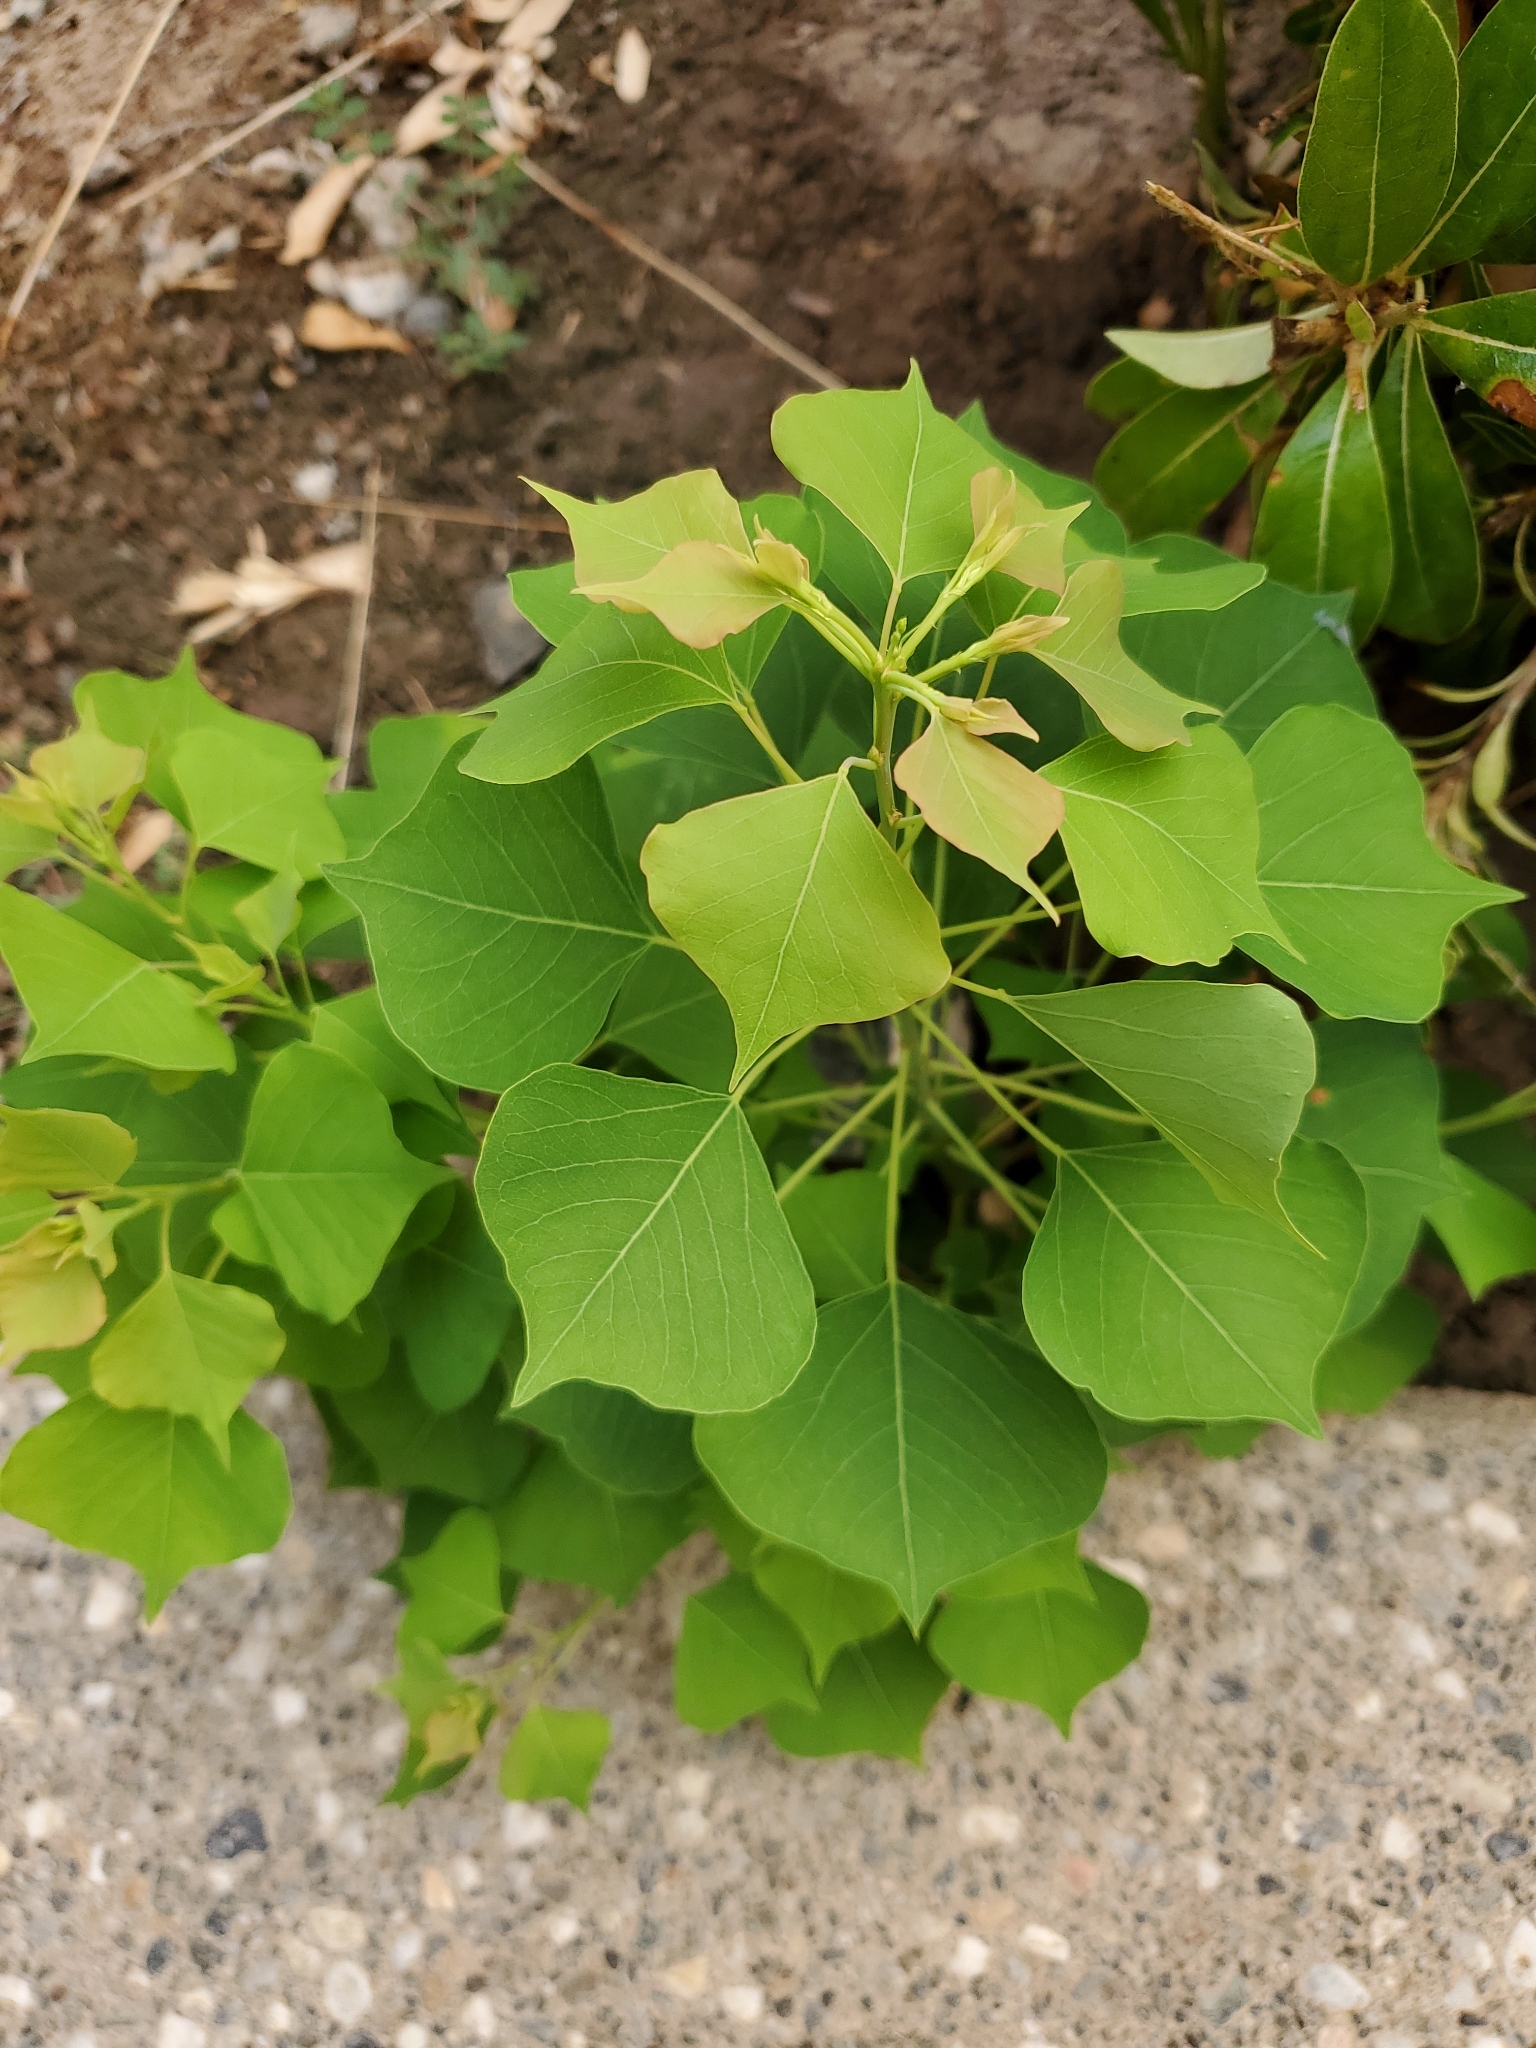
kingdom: Plantae
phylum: Tracheophyta
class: Magnoliopsida
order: Malpighiales
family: Euphorbiaceae
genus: Triadica
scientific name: Triadica sebifera
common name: Chinese tallow
